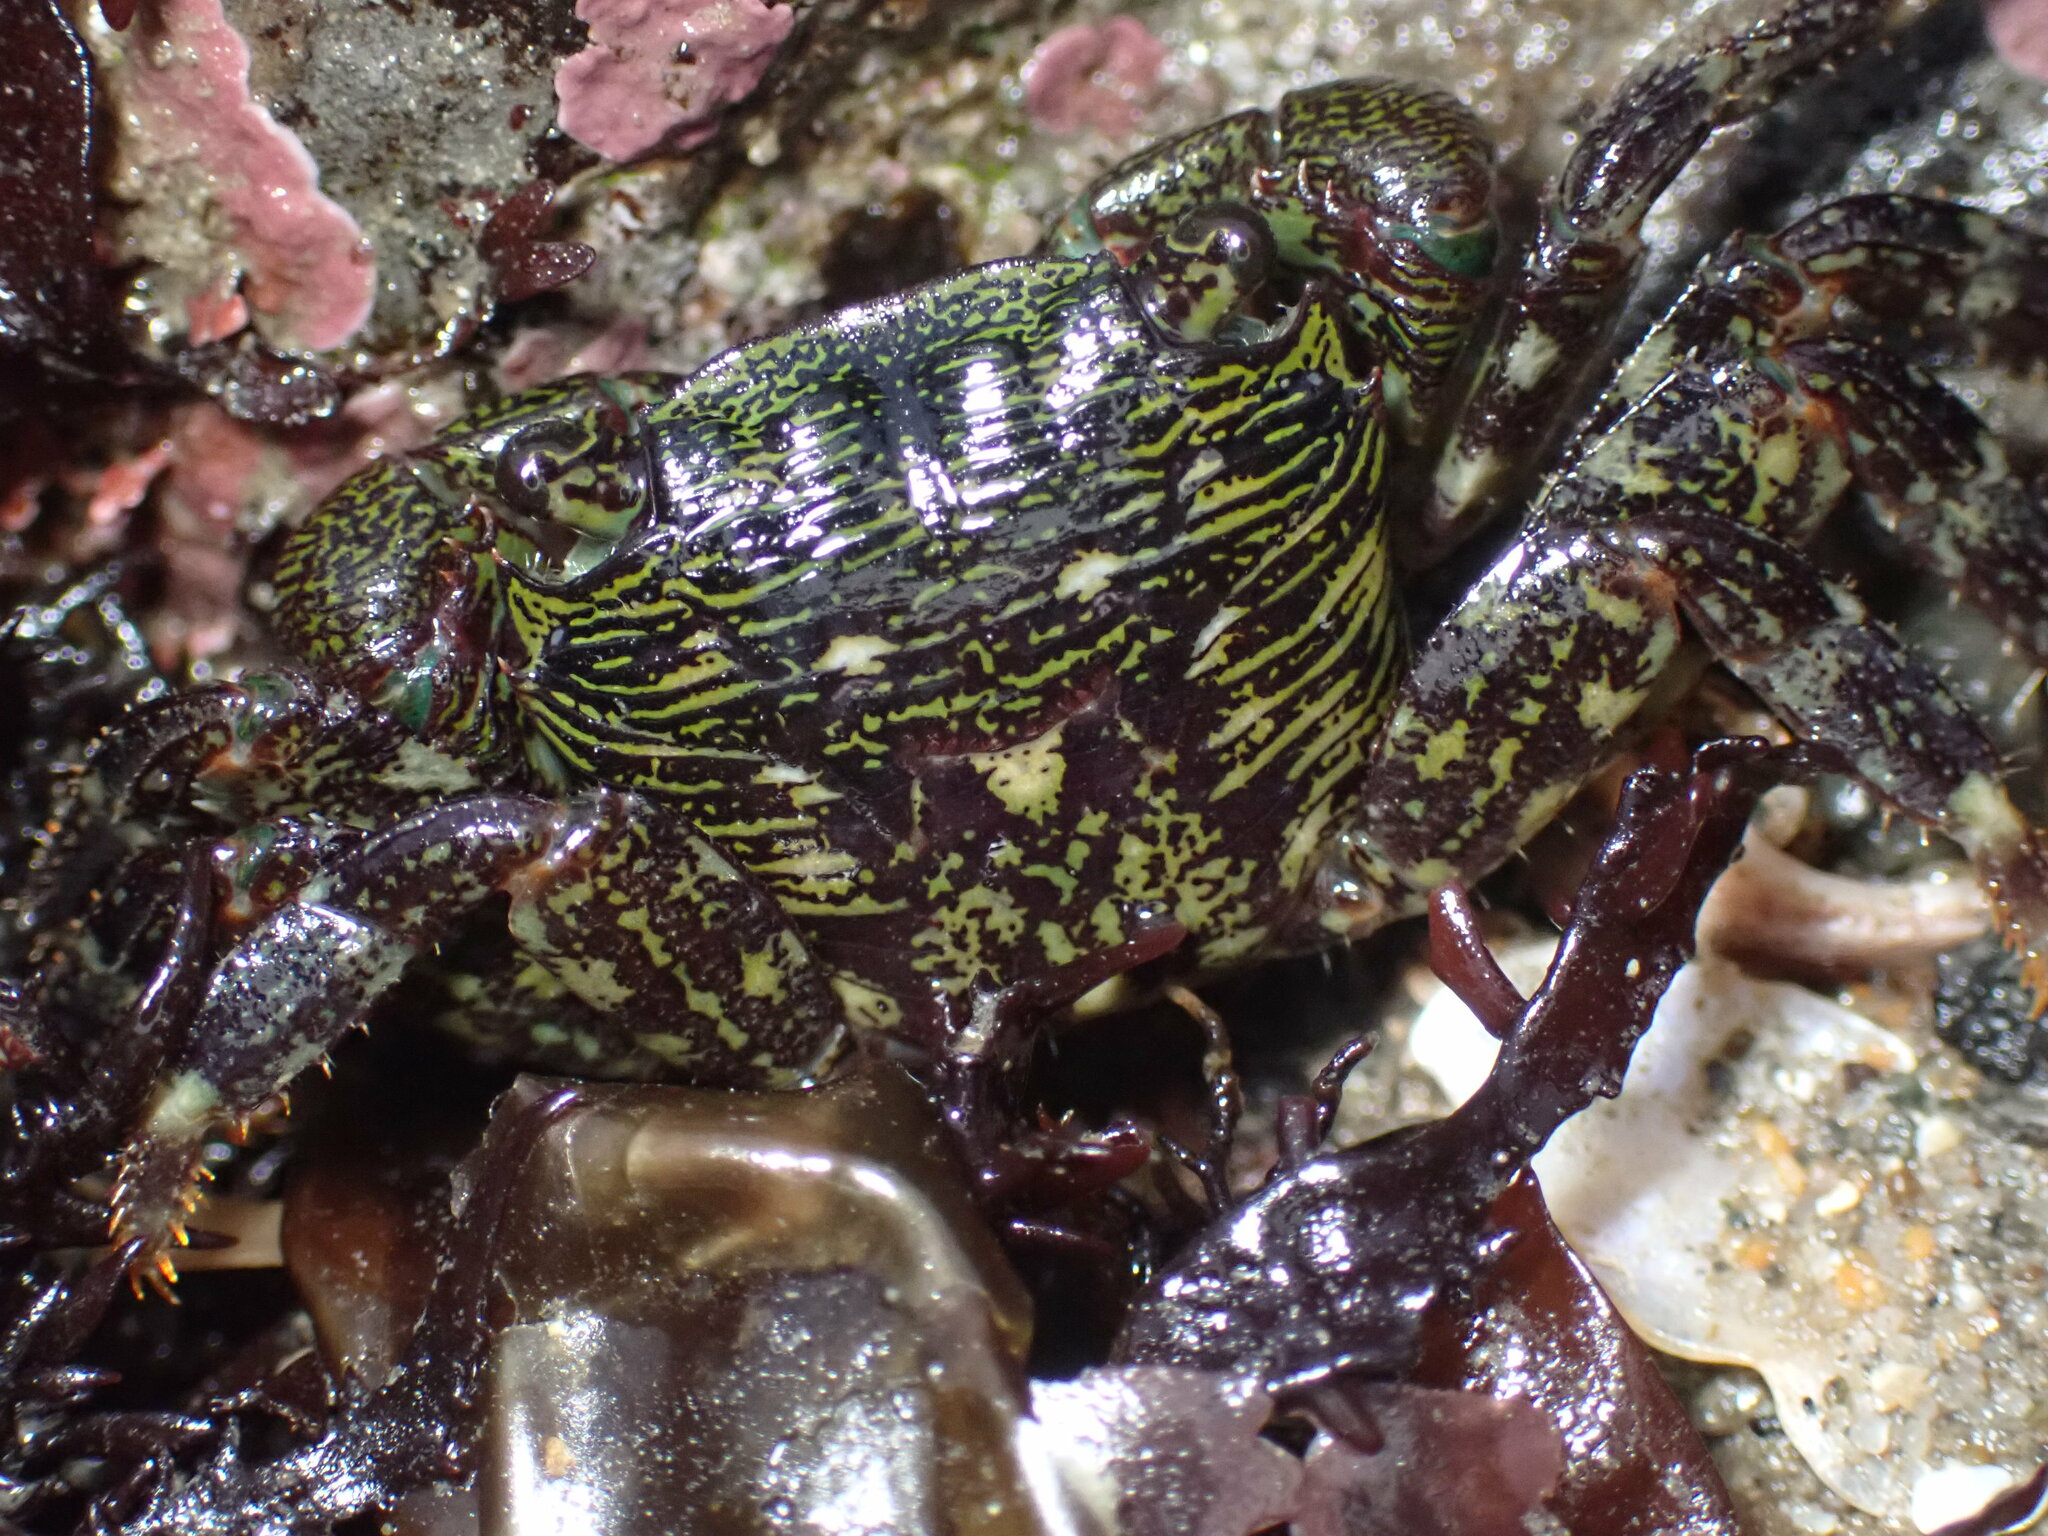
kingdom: Animalia
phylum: Arthropoda
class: Malacostraca
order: Decapoda
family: Grapsidae
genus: Pachygrapsus
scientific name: Pachygrapsus crassipes
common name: Striped shore crab
